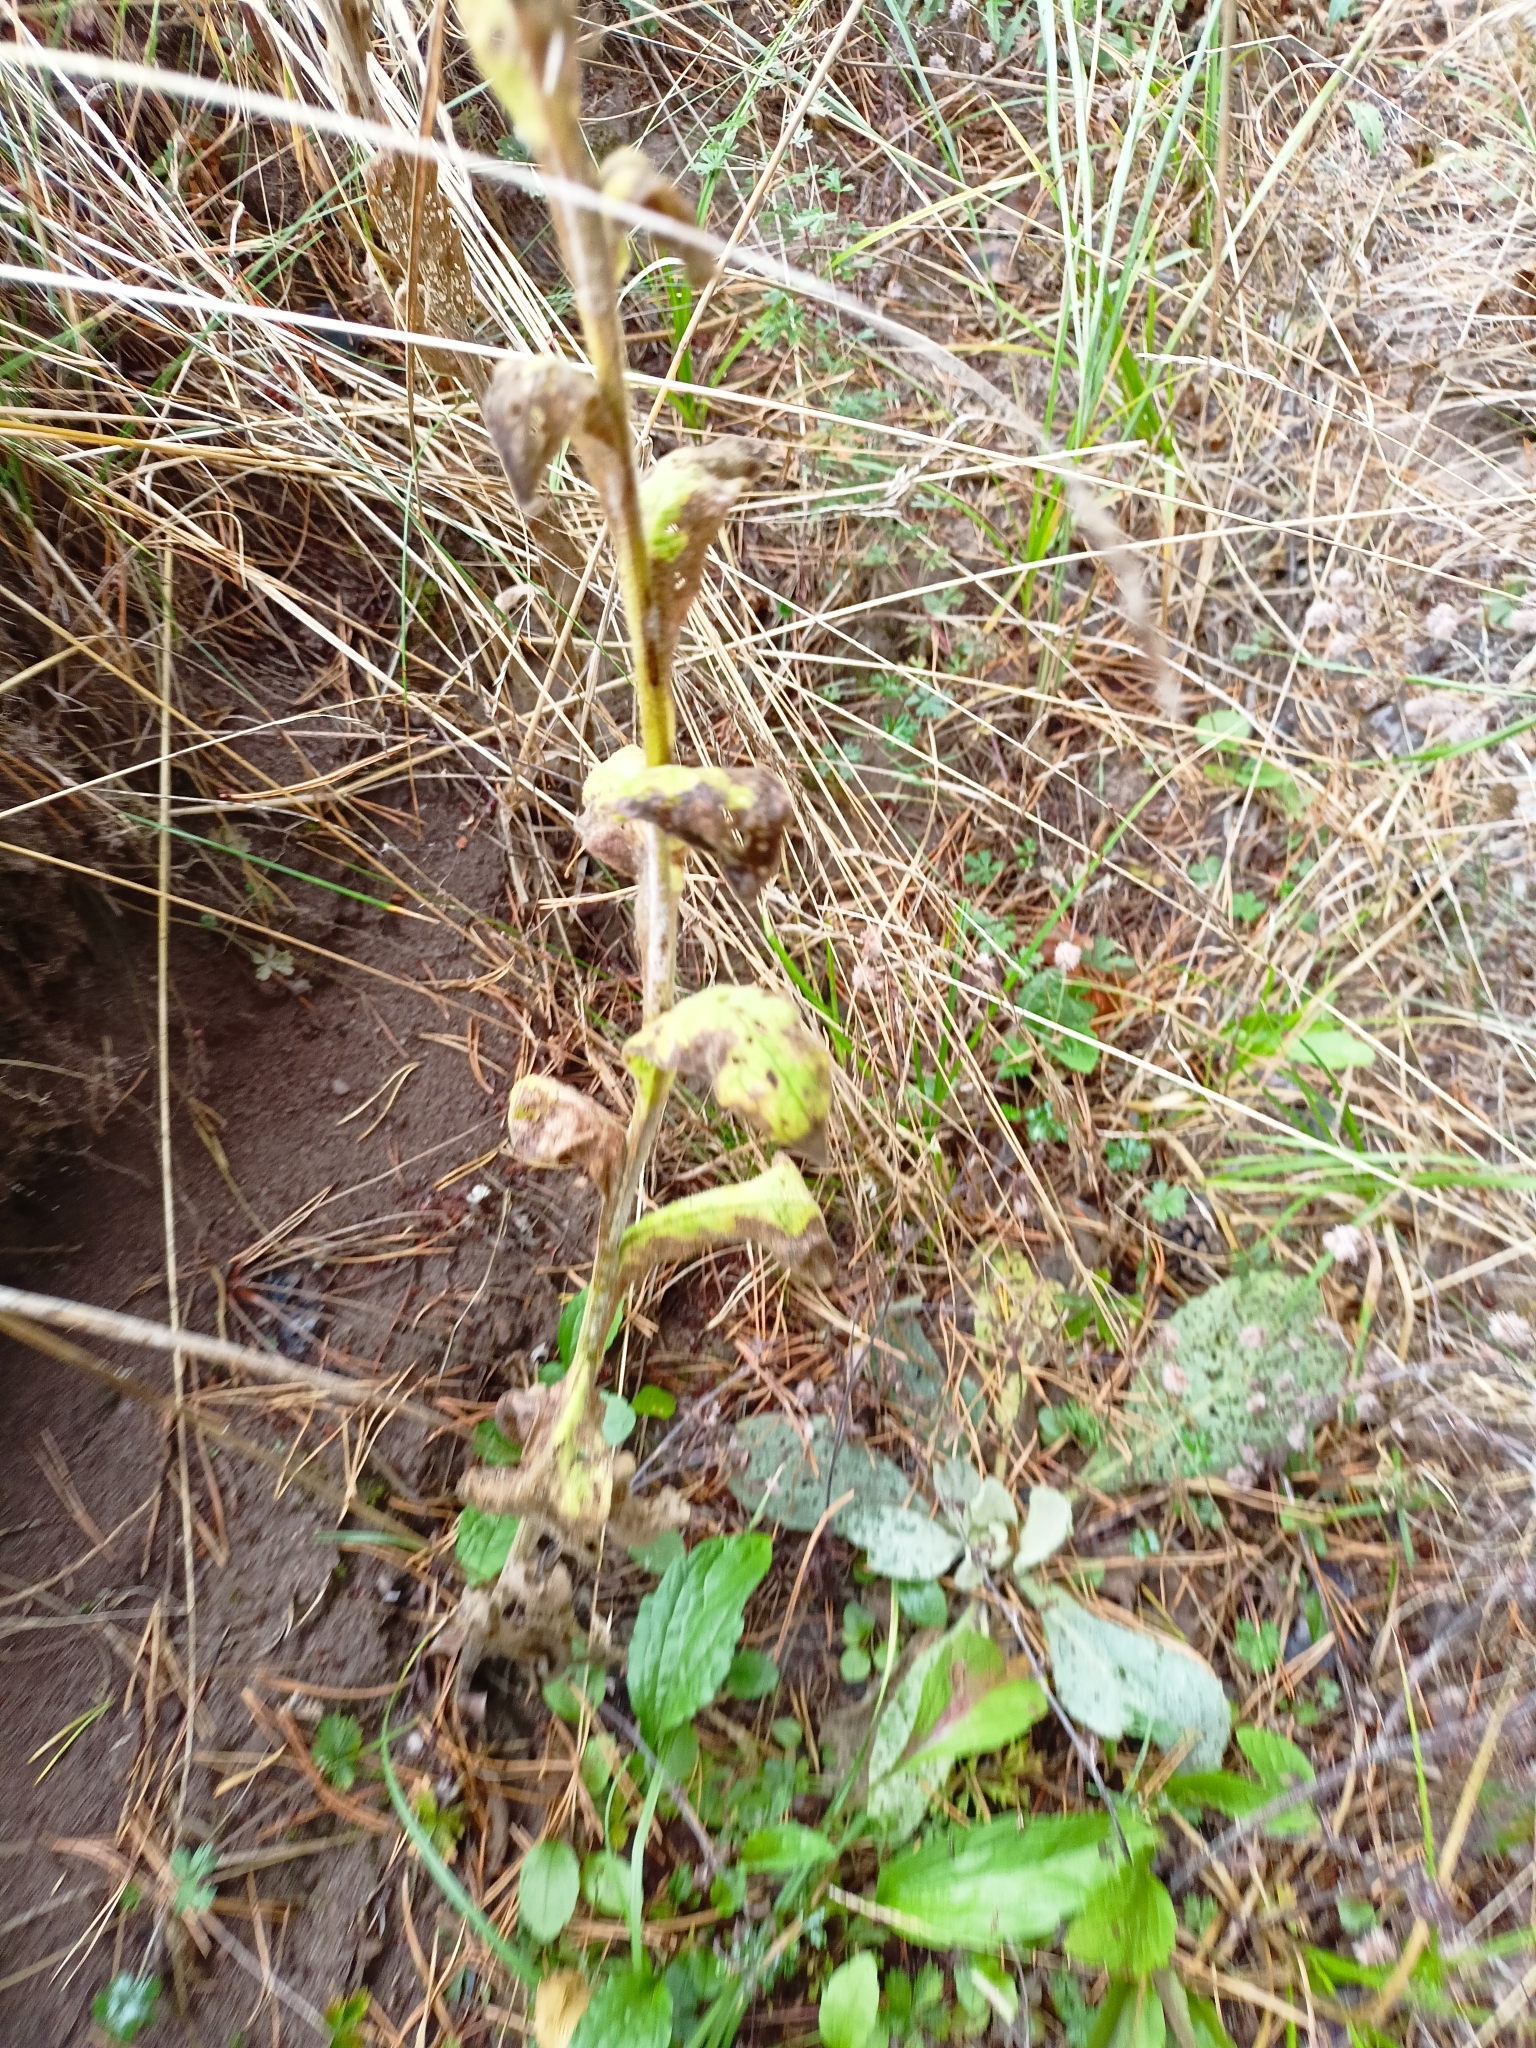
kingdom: Plantae
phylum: Tracheophyta
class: Magnoliopsida
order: Lamiales
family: Scrophulariaceae
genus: Verbascum
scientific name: Verbascum thapsus
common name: Common mullein
